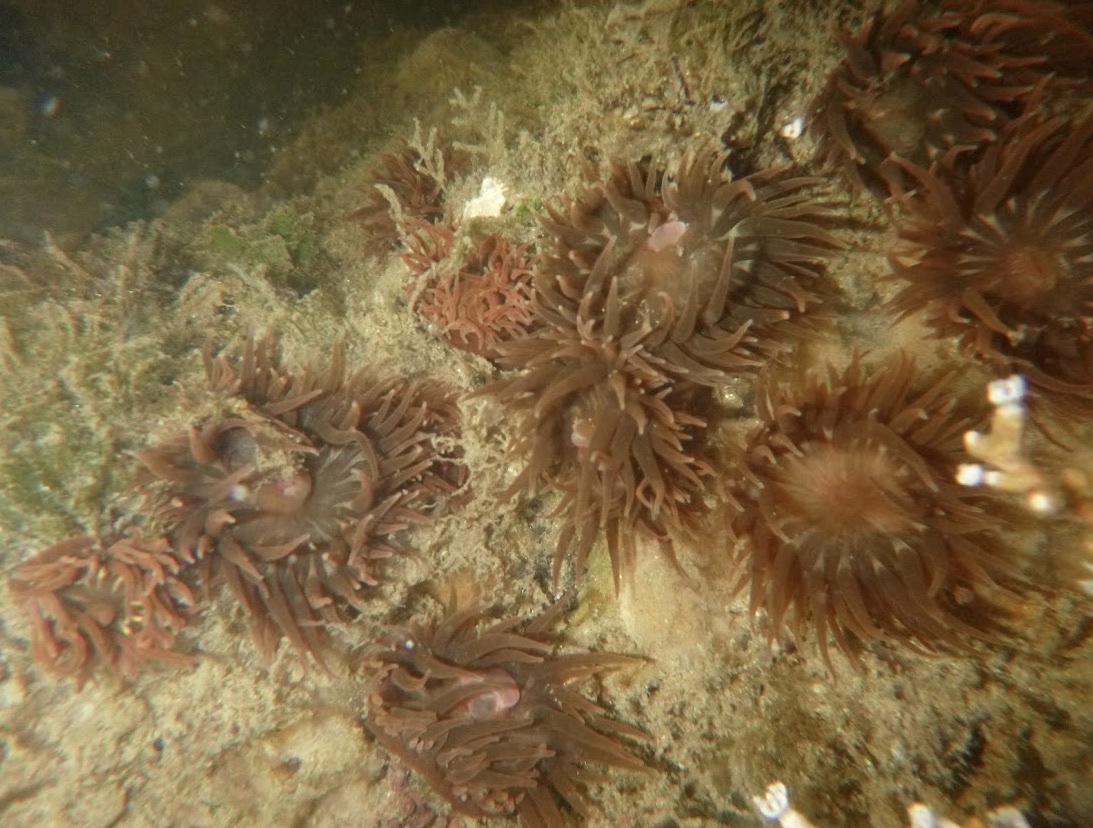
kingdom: Animalia
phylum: Cnidaria
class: Anthozoa
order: Actiniaria
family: Actiniidae
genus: Anemonia
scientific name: Anemonia sargassensis
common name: Sargassum anemone
